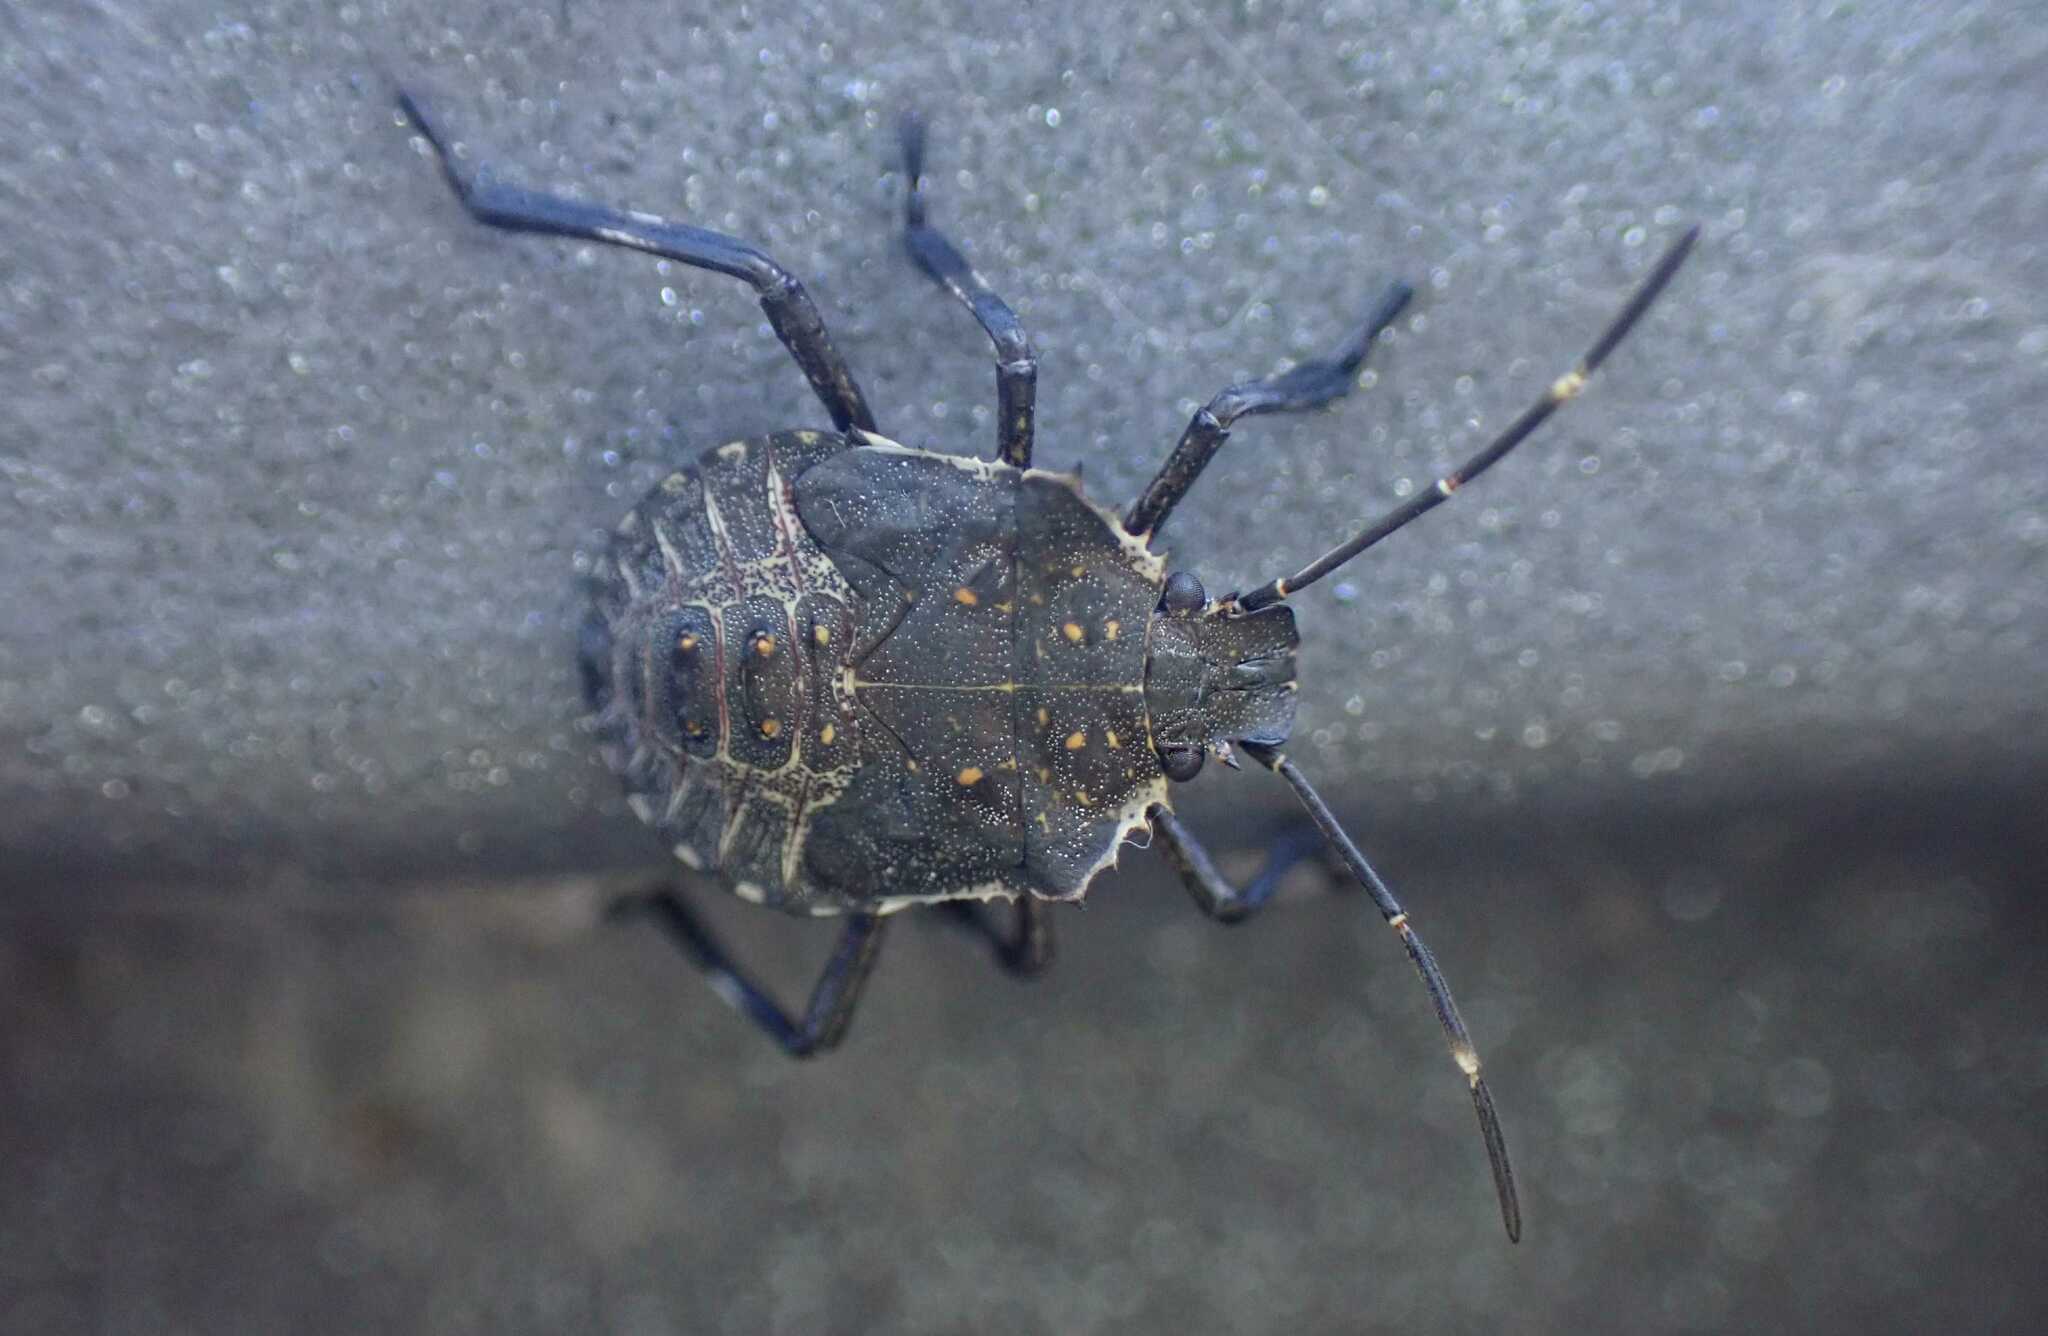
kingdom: Animalia
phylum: Arthropoda
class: Insecta
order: Hemiptera
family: Pentatomidae
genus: Halyomorpha
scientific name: Halyomorpha halys
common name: Brown marmorated stink bug
